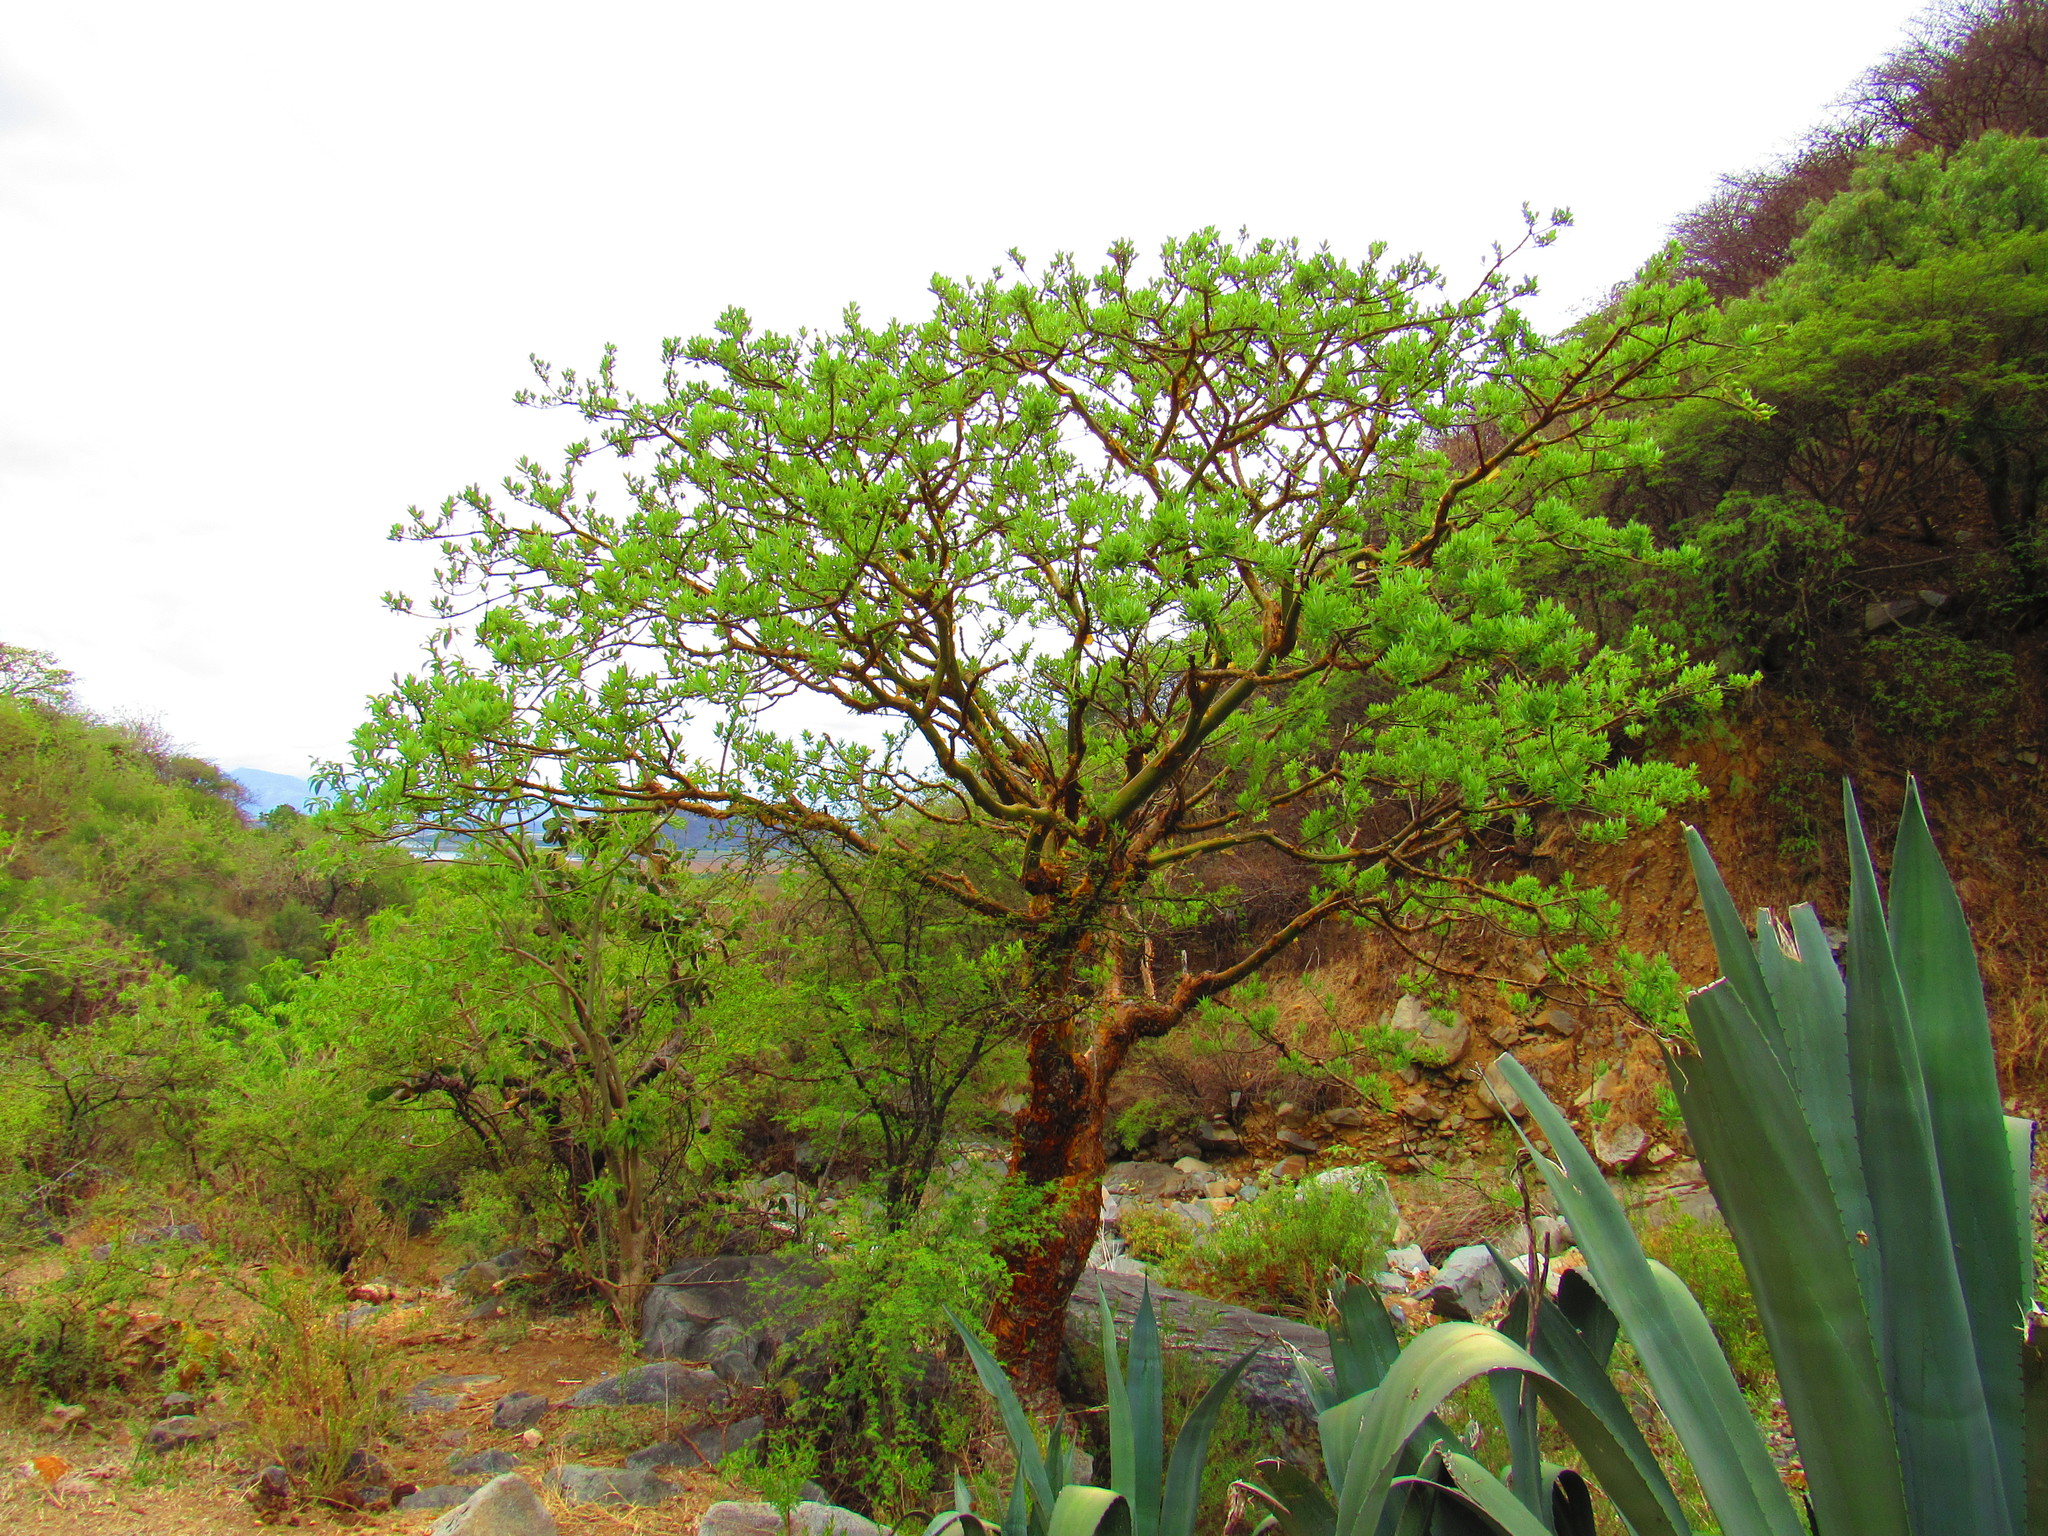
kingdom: Plantae
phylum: Tracheophyta
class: Magnoliopsida
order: Malpighiales
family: Euphorbiaceae
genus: Euphorbia
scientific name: Euphorbia tanquahuete
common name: Leche maria
